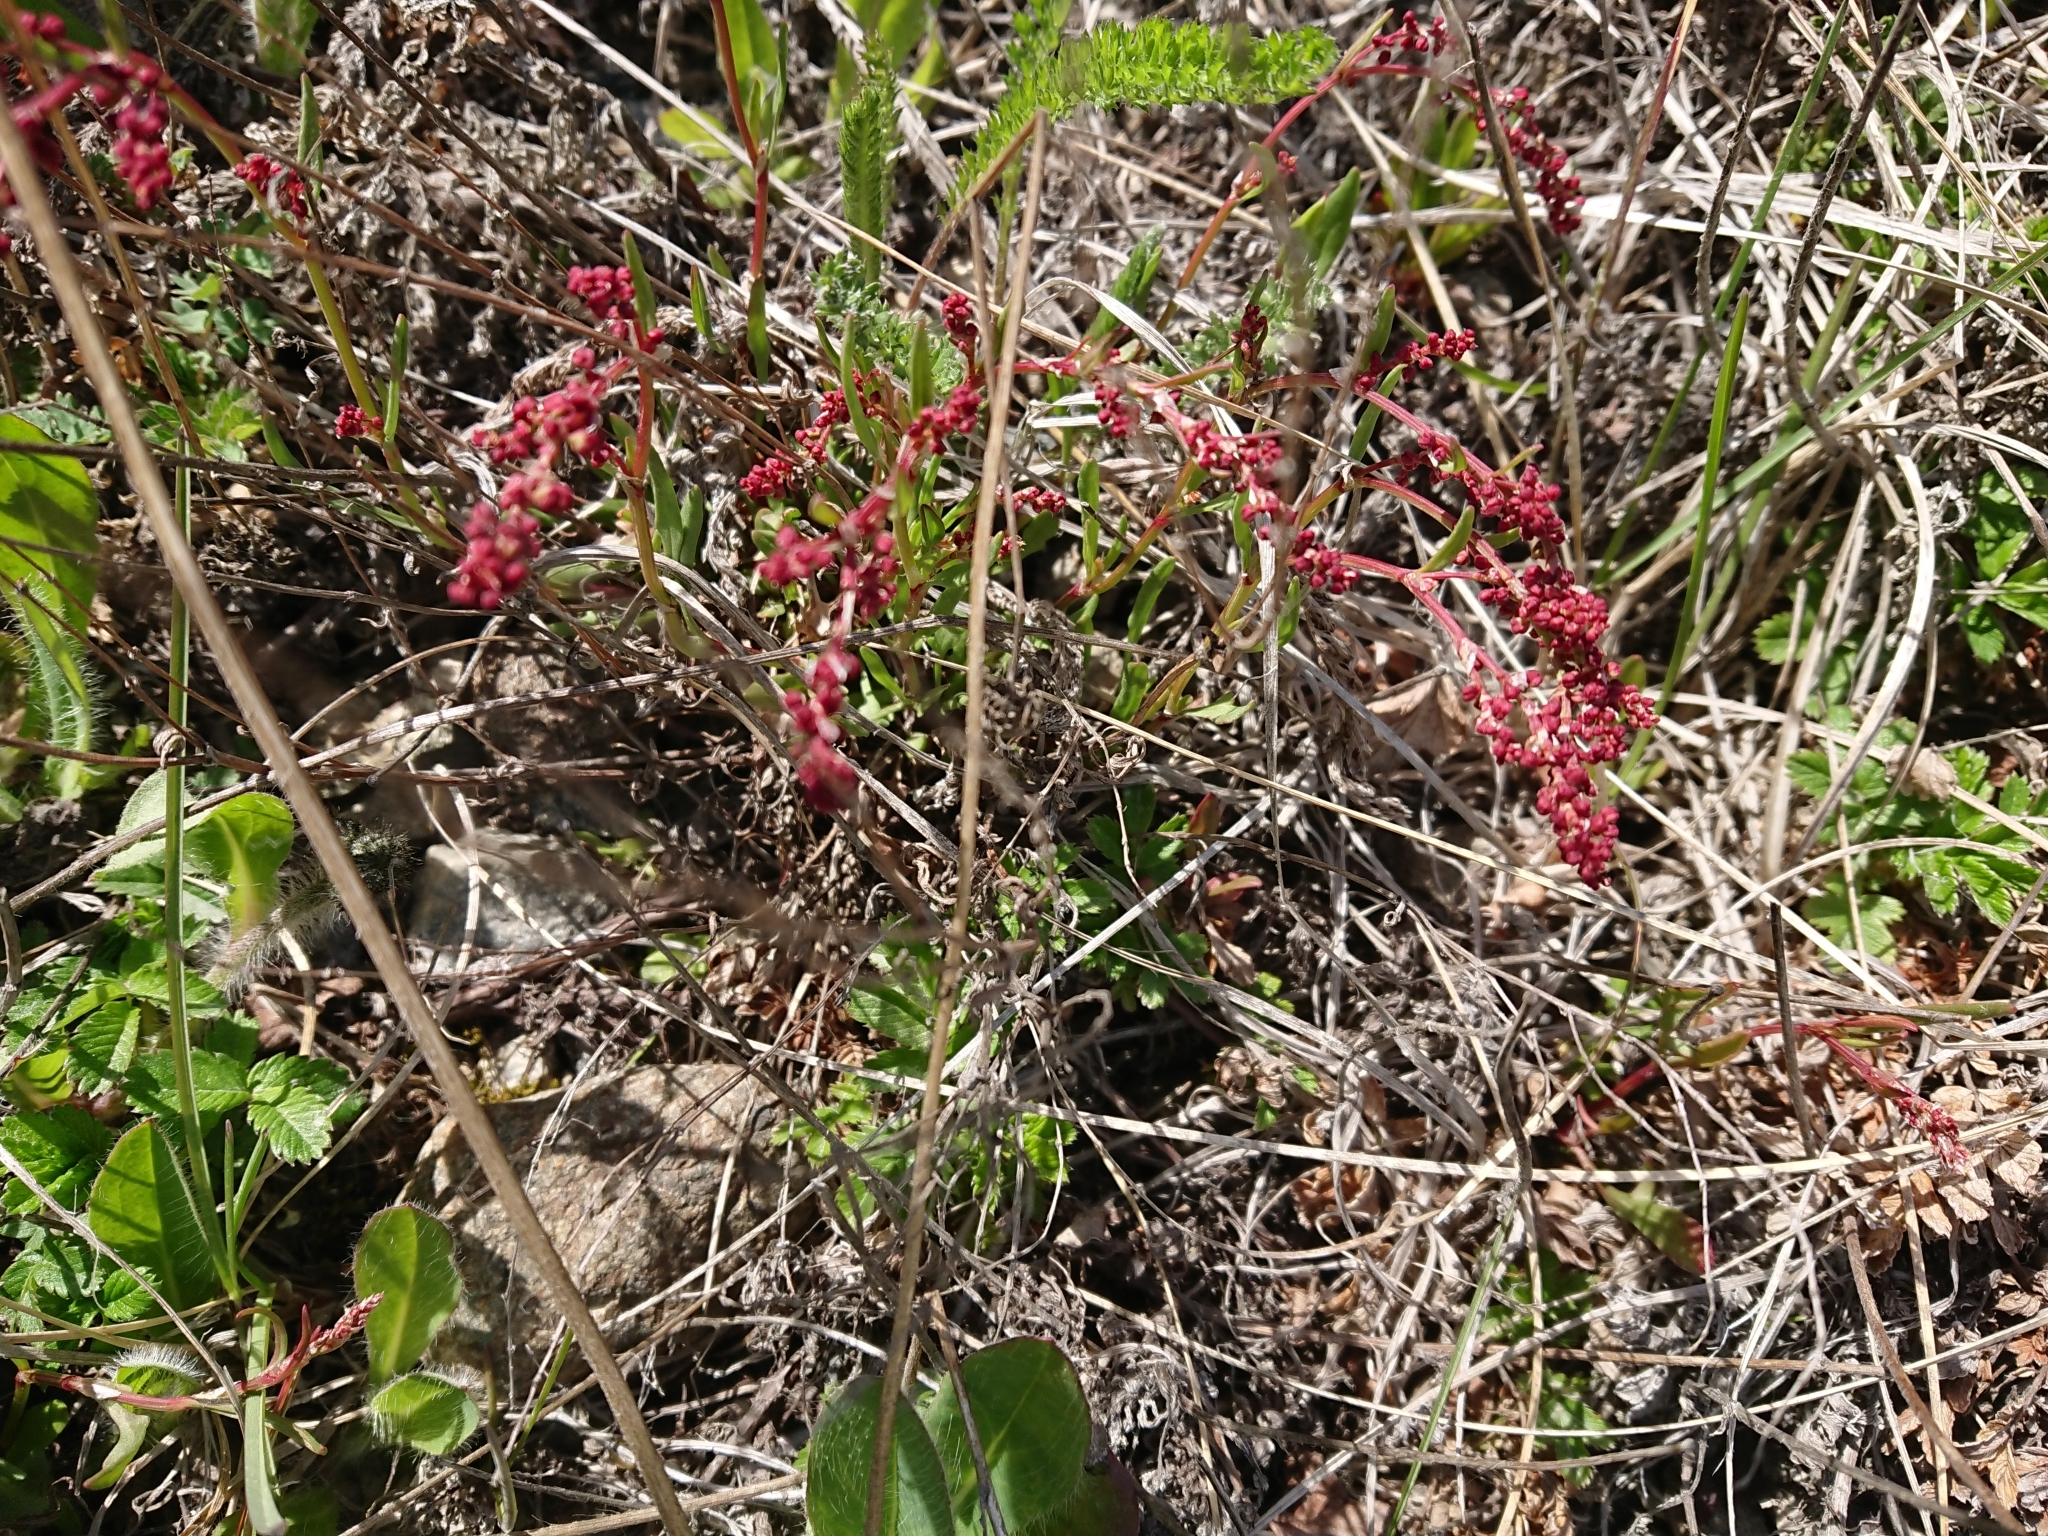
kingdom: Plantae
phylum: Tracheophyta
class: Magnoliopsida
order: Caryophyllales
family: Polygonaceae
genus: Rumex
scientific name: Rumex acetosella
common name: Common sheep sorrel
